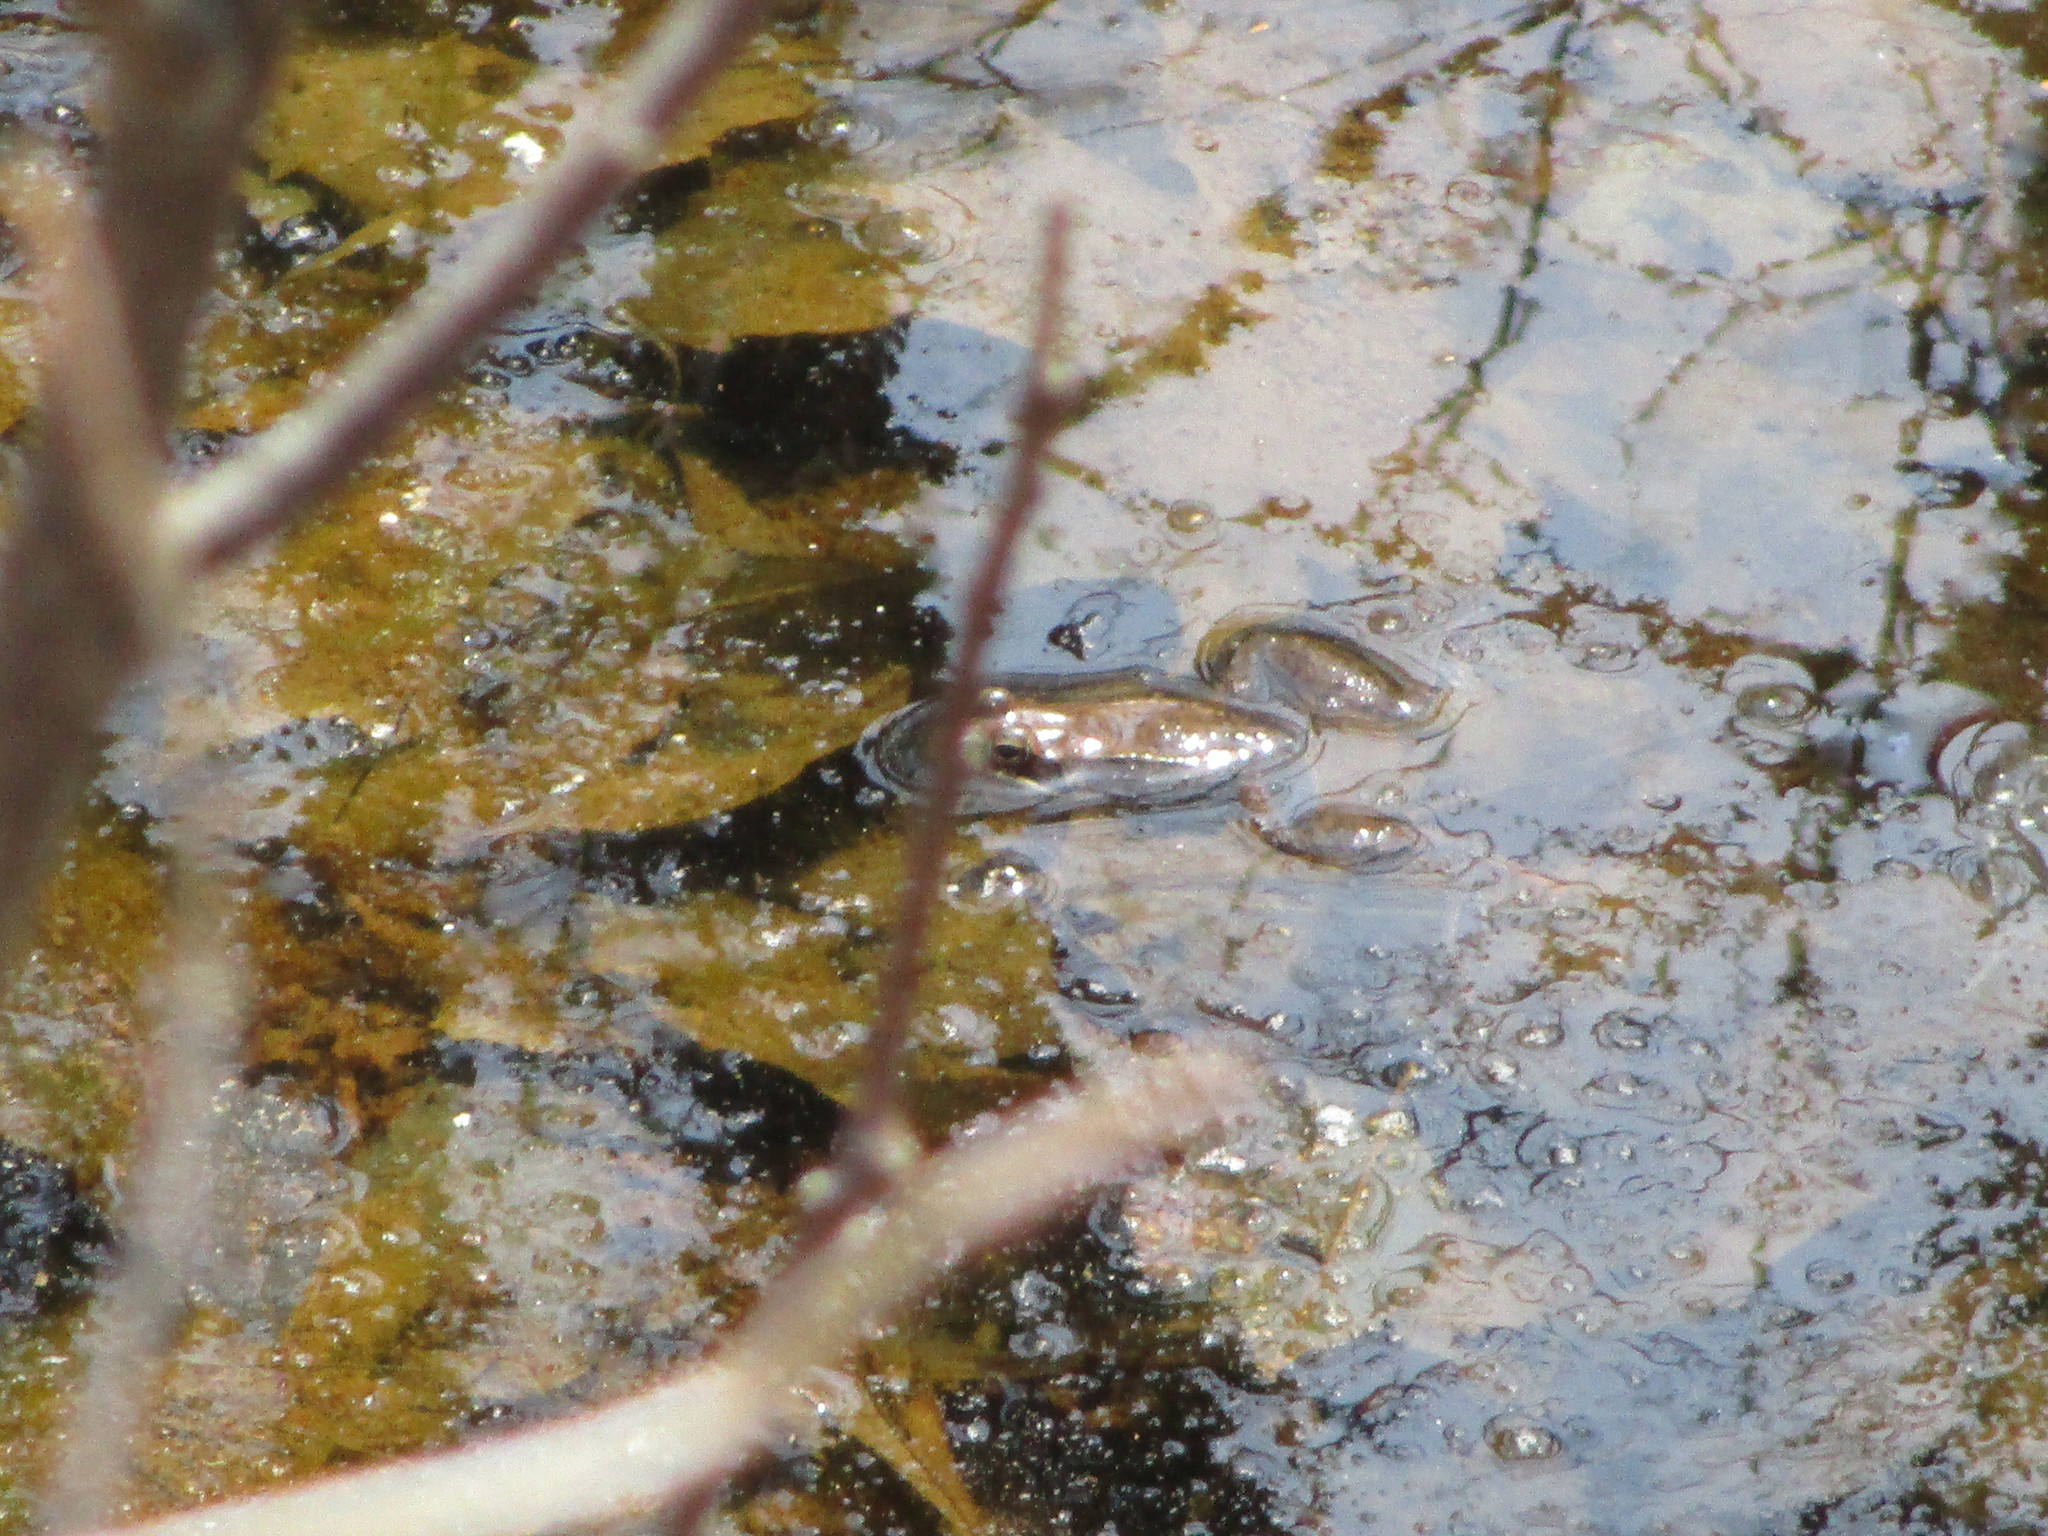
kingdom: Animalia
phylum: Chordata
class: Amphibia
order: Anura
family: Ranidae
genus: Lithobates
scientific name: Lithobates sylvaticus
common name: Wood frog
